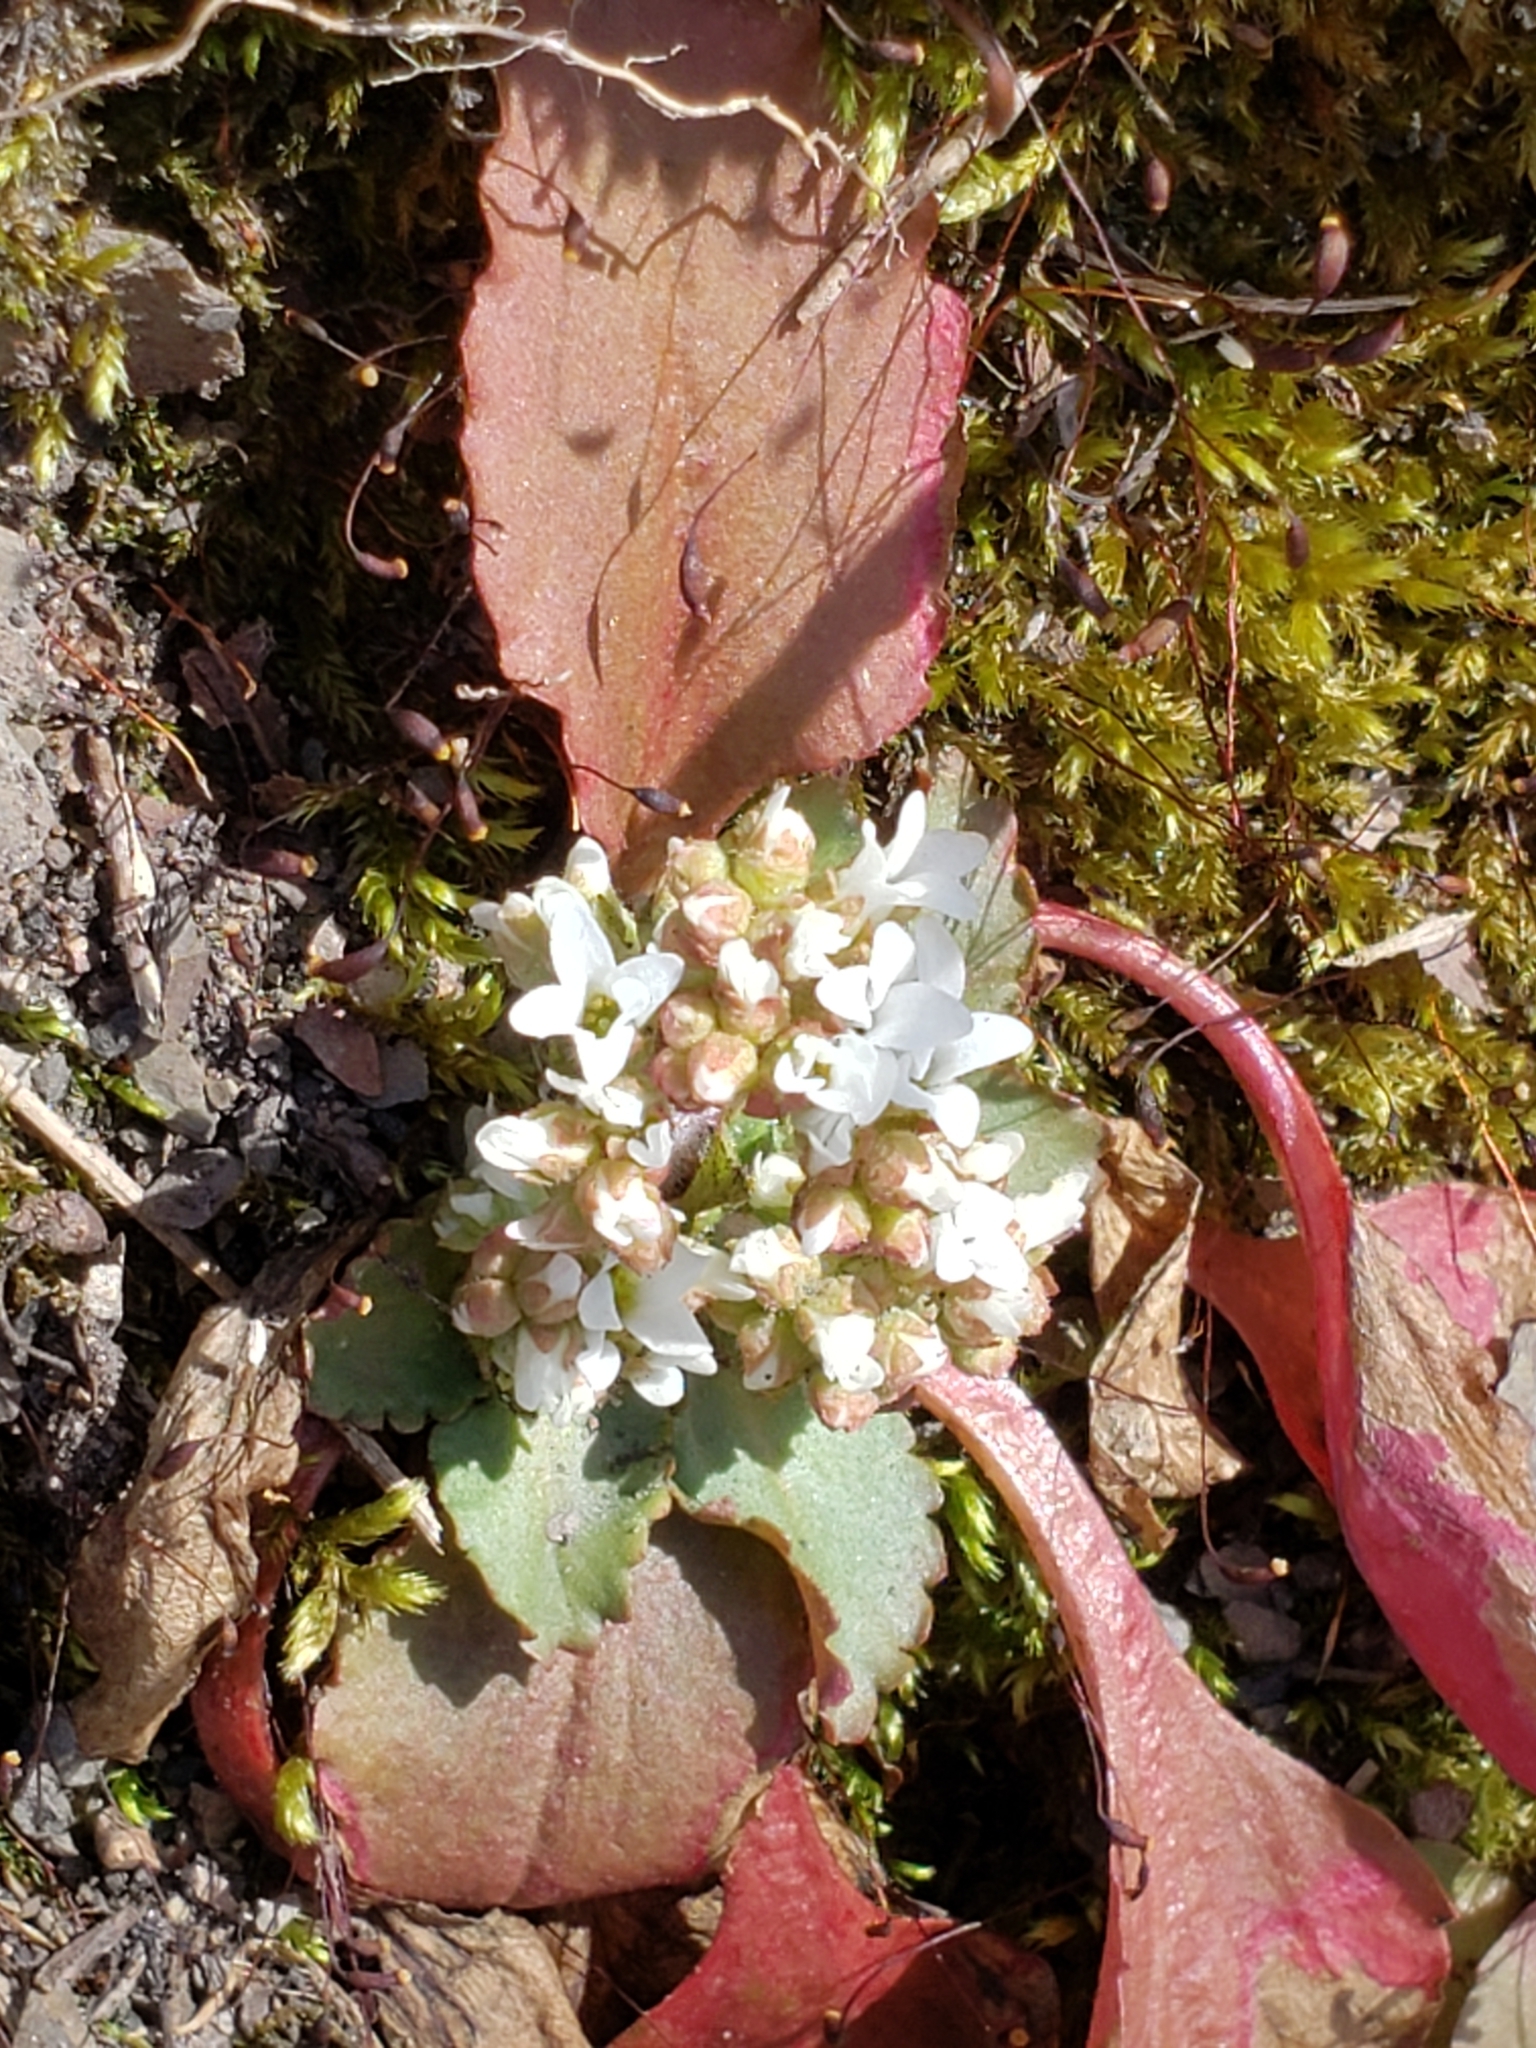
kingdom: Plantae
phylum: Tracheophyta
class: Magnoliopsida
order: Saxifragales
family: Saxifragaceae
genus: Micranthes
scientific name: Micranthes virginiensis
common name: Early saxifrage
